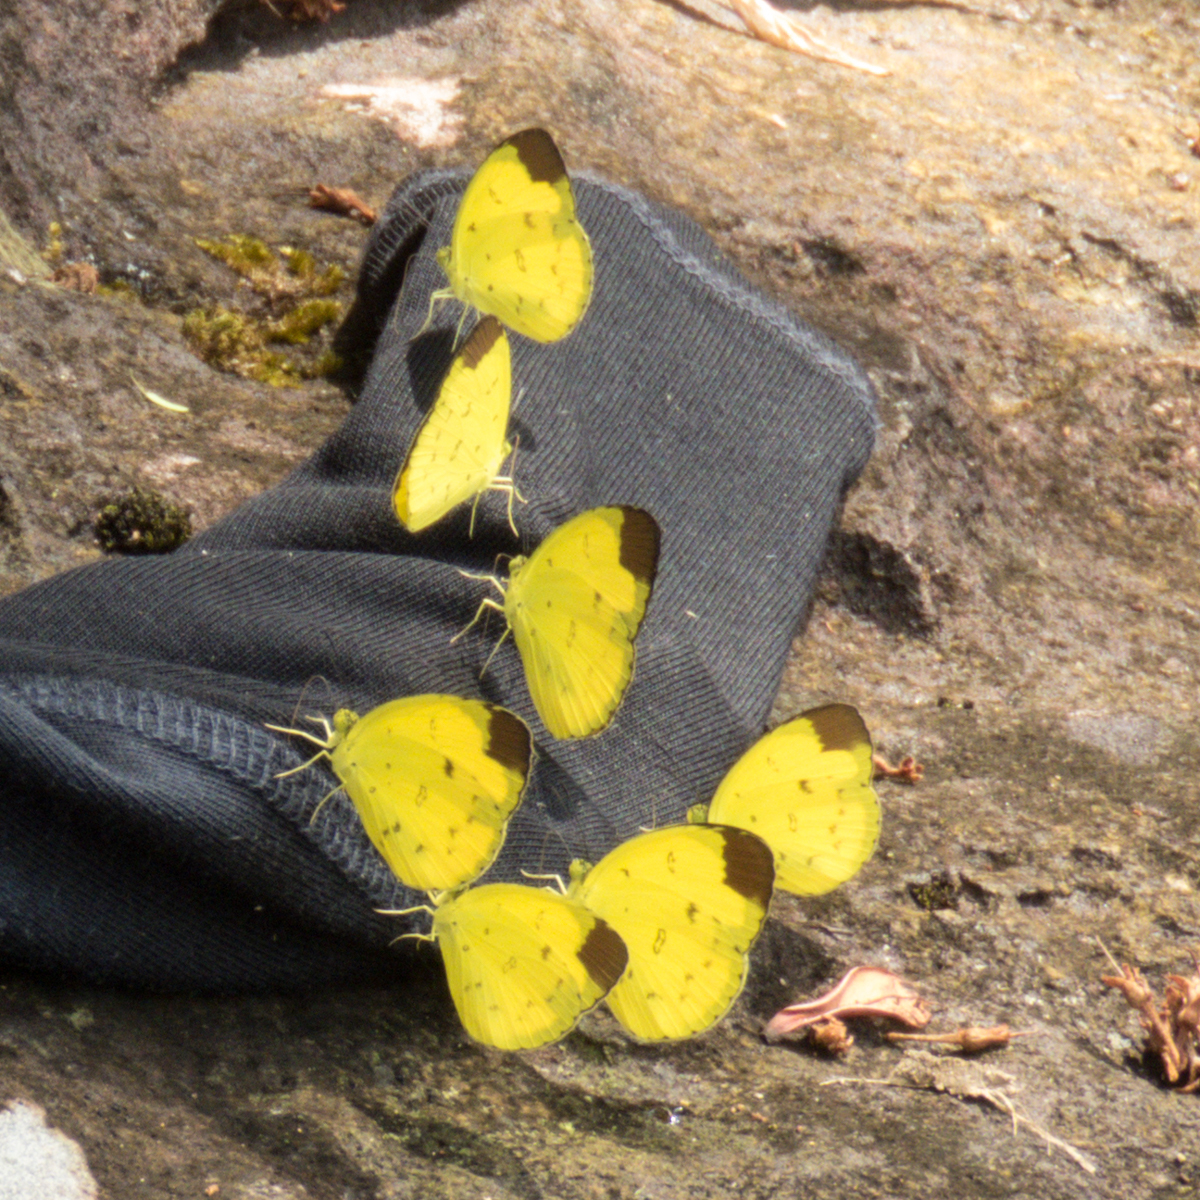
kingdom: Animalia
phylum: Arthropoda
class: Insecta
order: Lepidoptera
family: Pieridae
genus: Eurema
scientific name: Eurema sari
